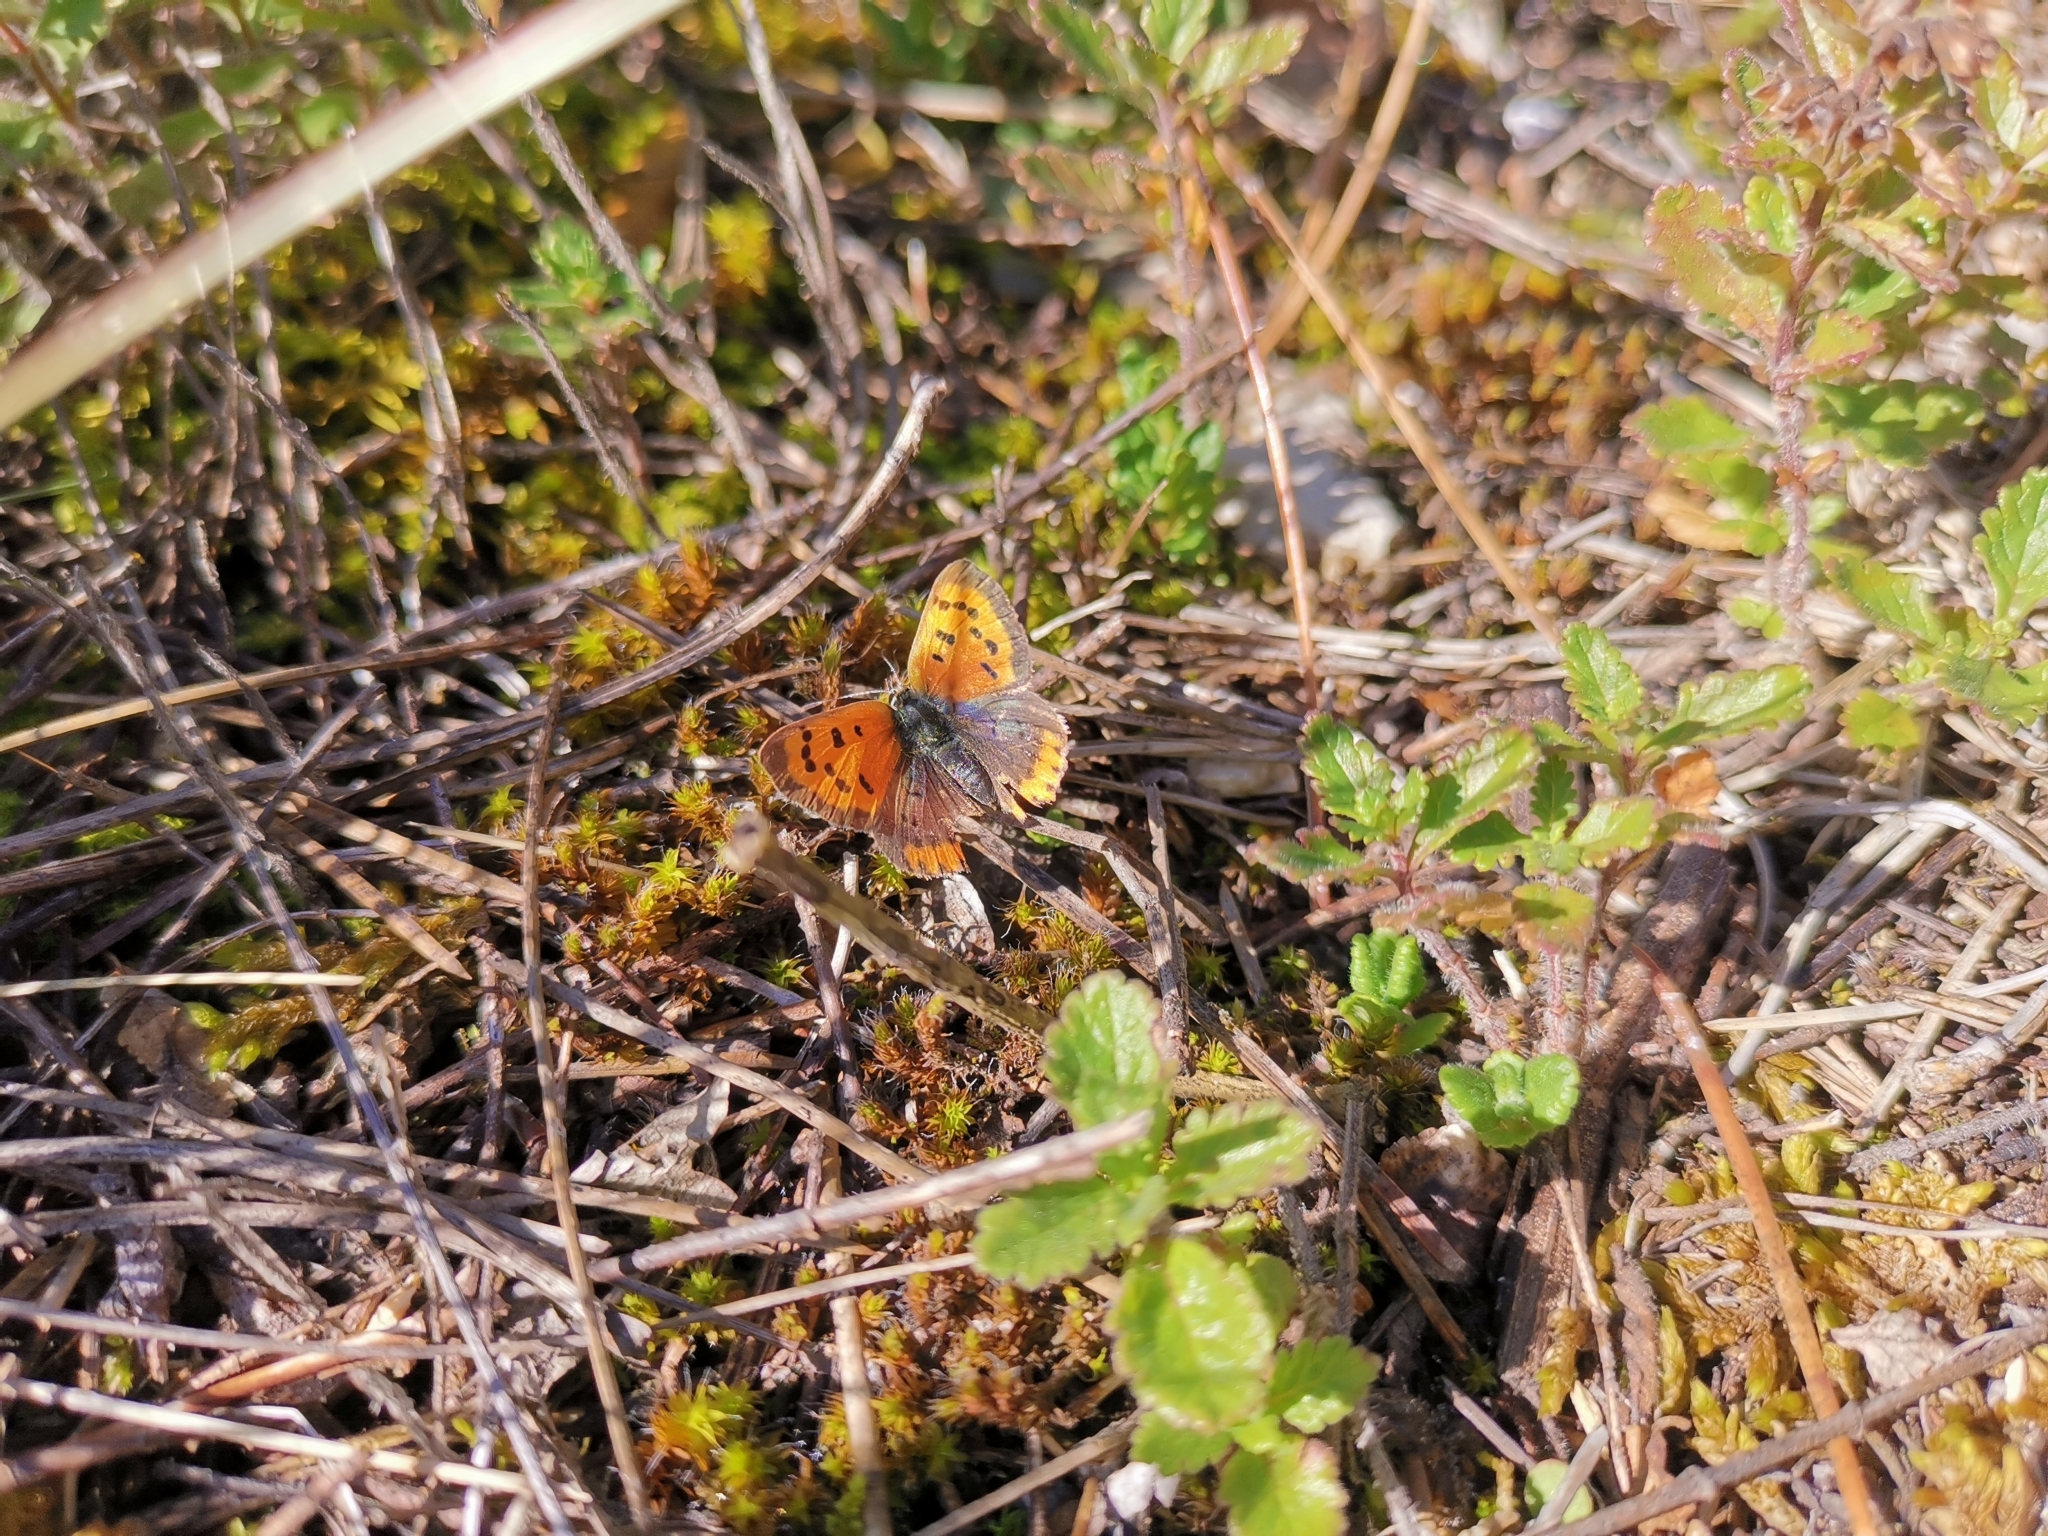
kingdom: Animalia
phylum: Arthropoda
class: Insecta
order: Lepidoptera
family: Lycaenidae
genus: Lycaena
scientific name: Lycaena phlaeas
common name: Small copper
